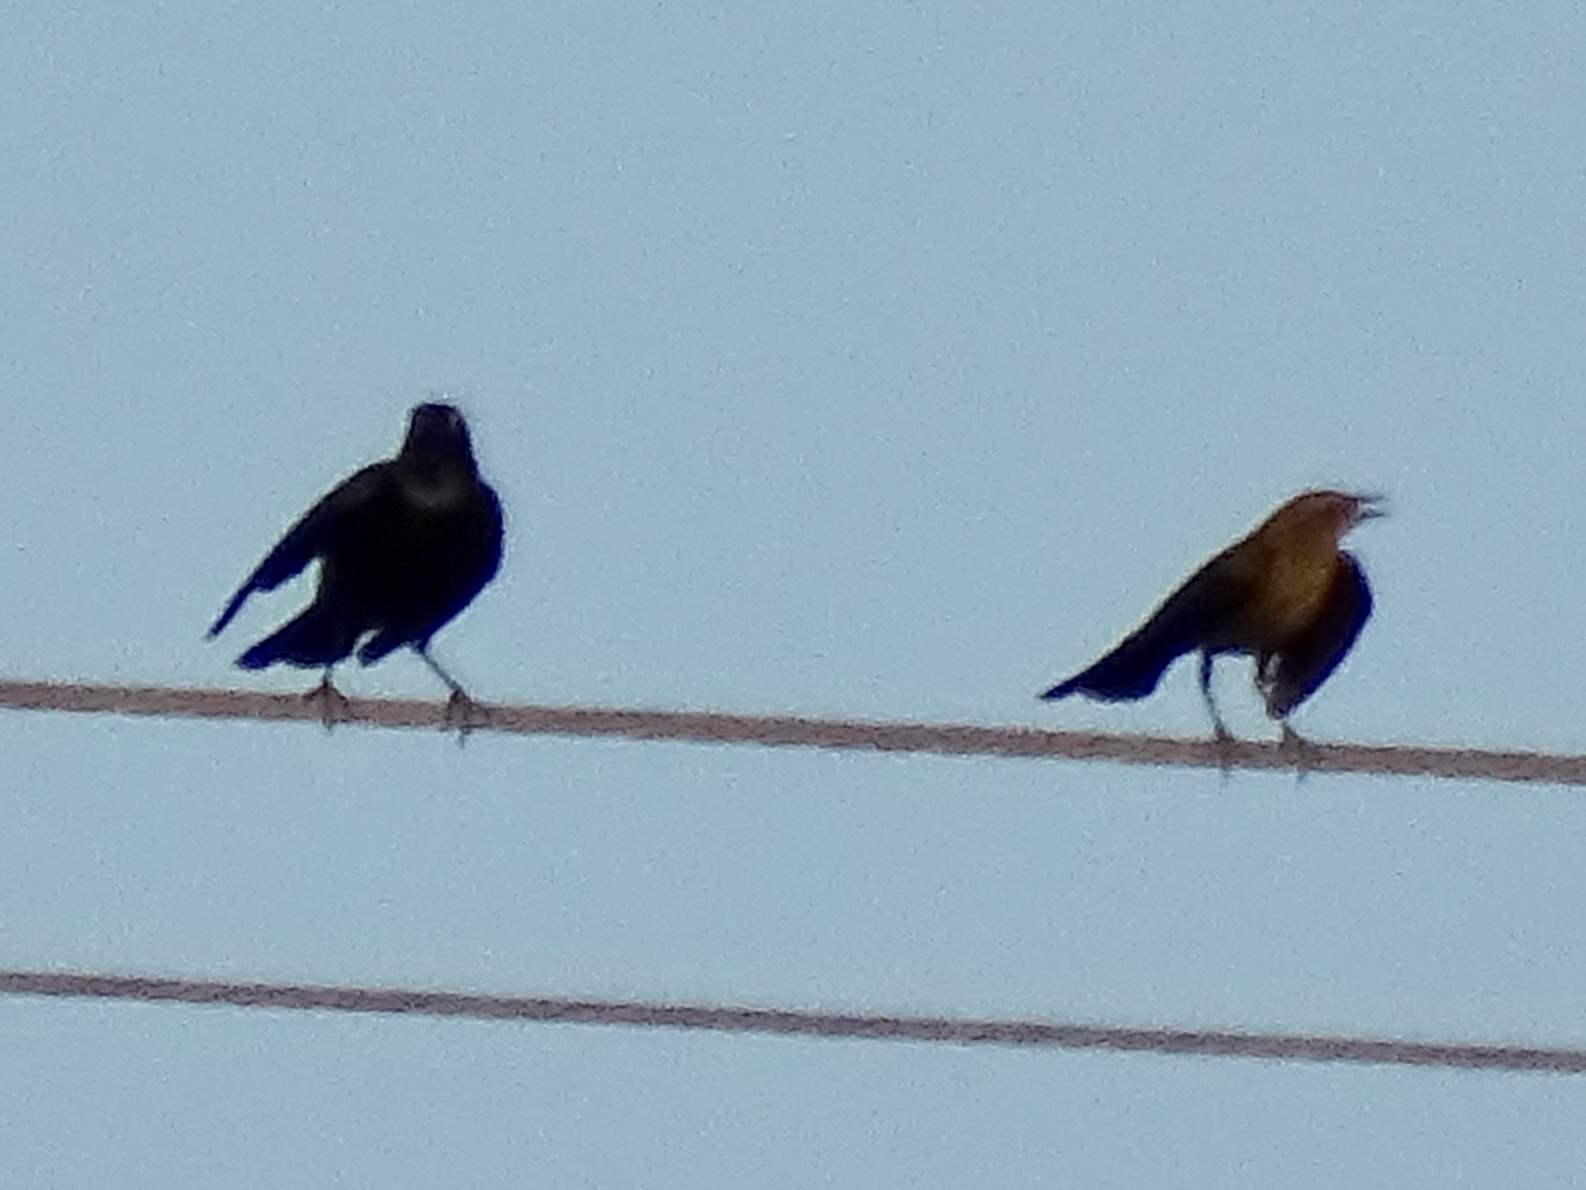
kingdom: Animalia
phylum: Chordata
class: Aves
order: Passeriformes
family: Icteridae
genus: Euphagus
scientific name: Euphagus cyanocephalus
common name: Brewer's blackbird
